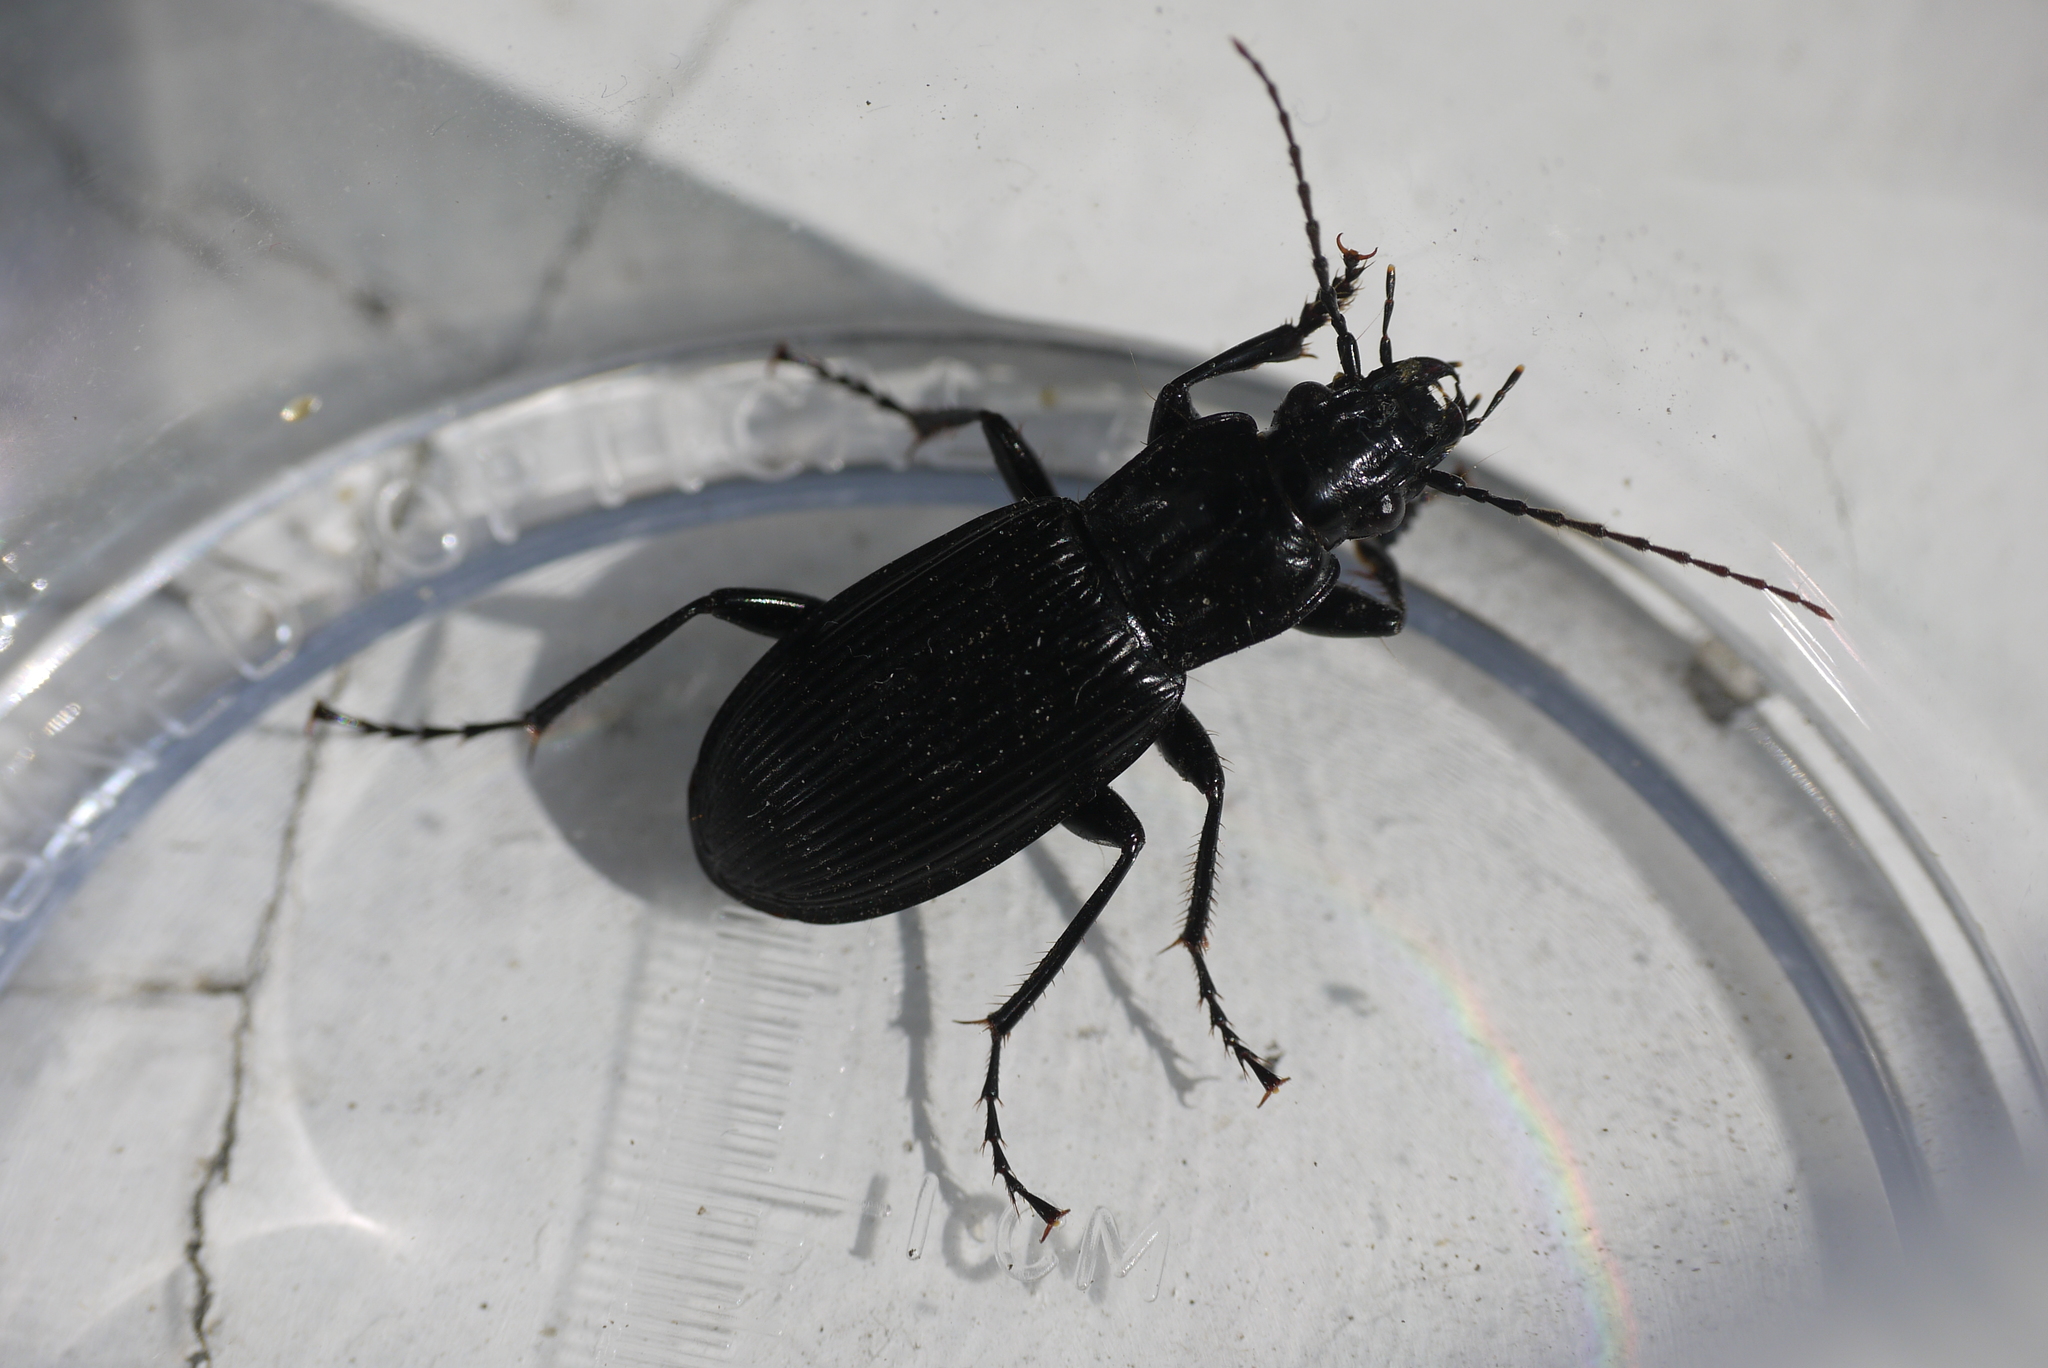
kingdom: Animalia
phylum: Arthropoda
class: Insecta
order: Coleoptera
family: Carabidae
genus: Pterostichus
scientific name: Pterostichus niger
